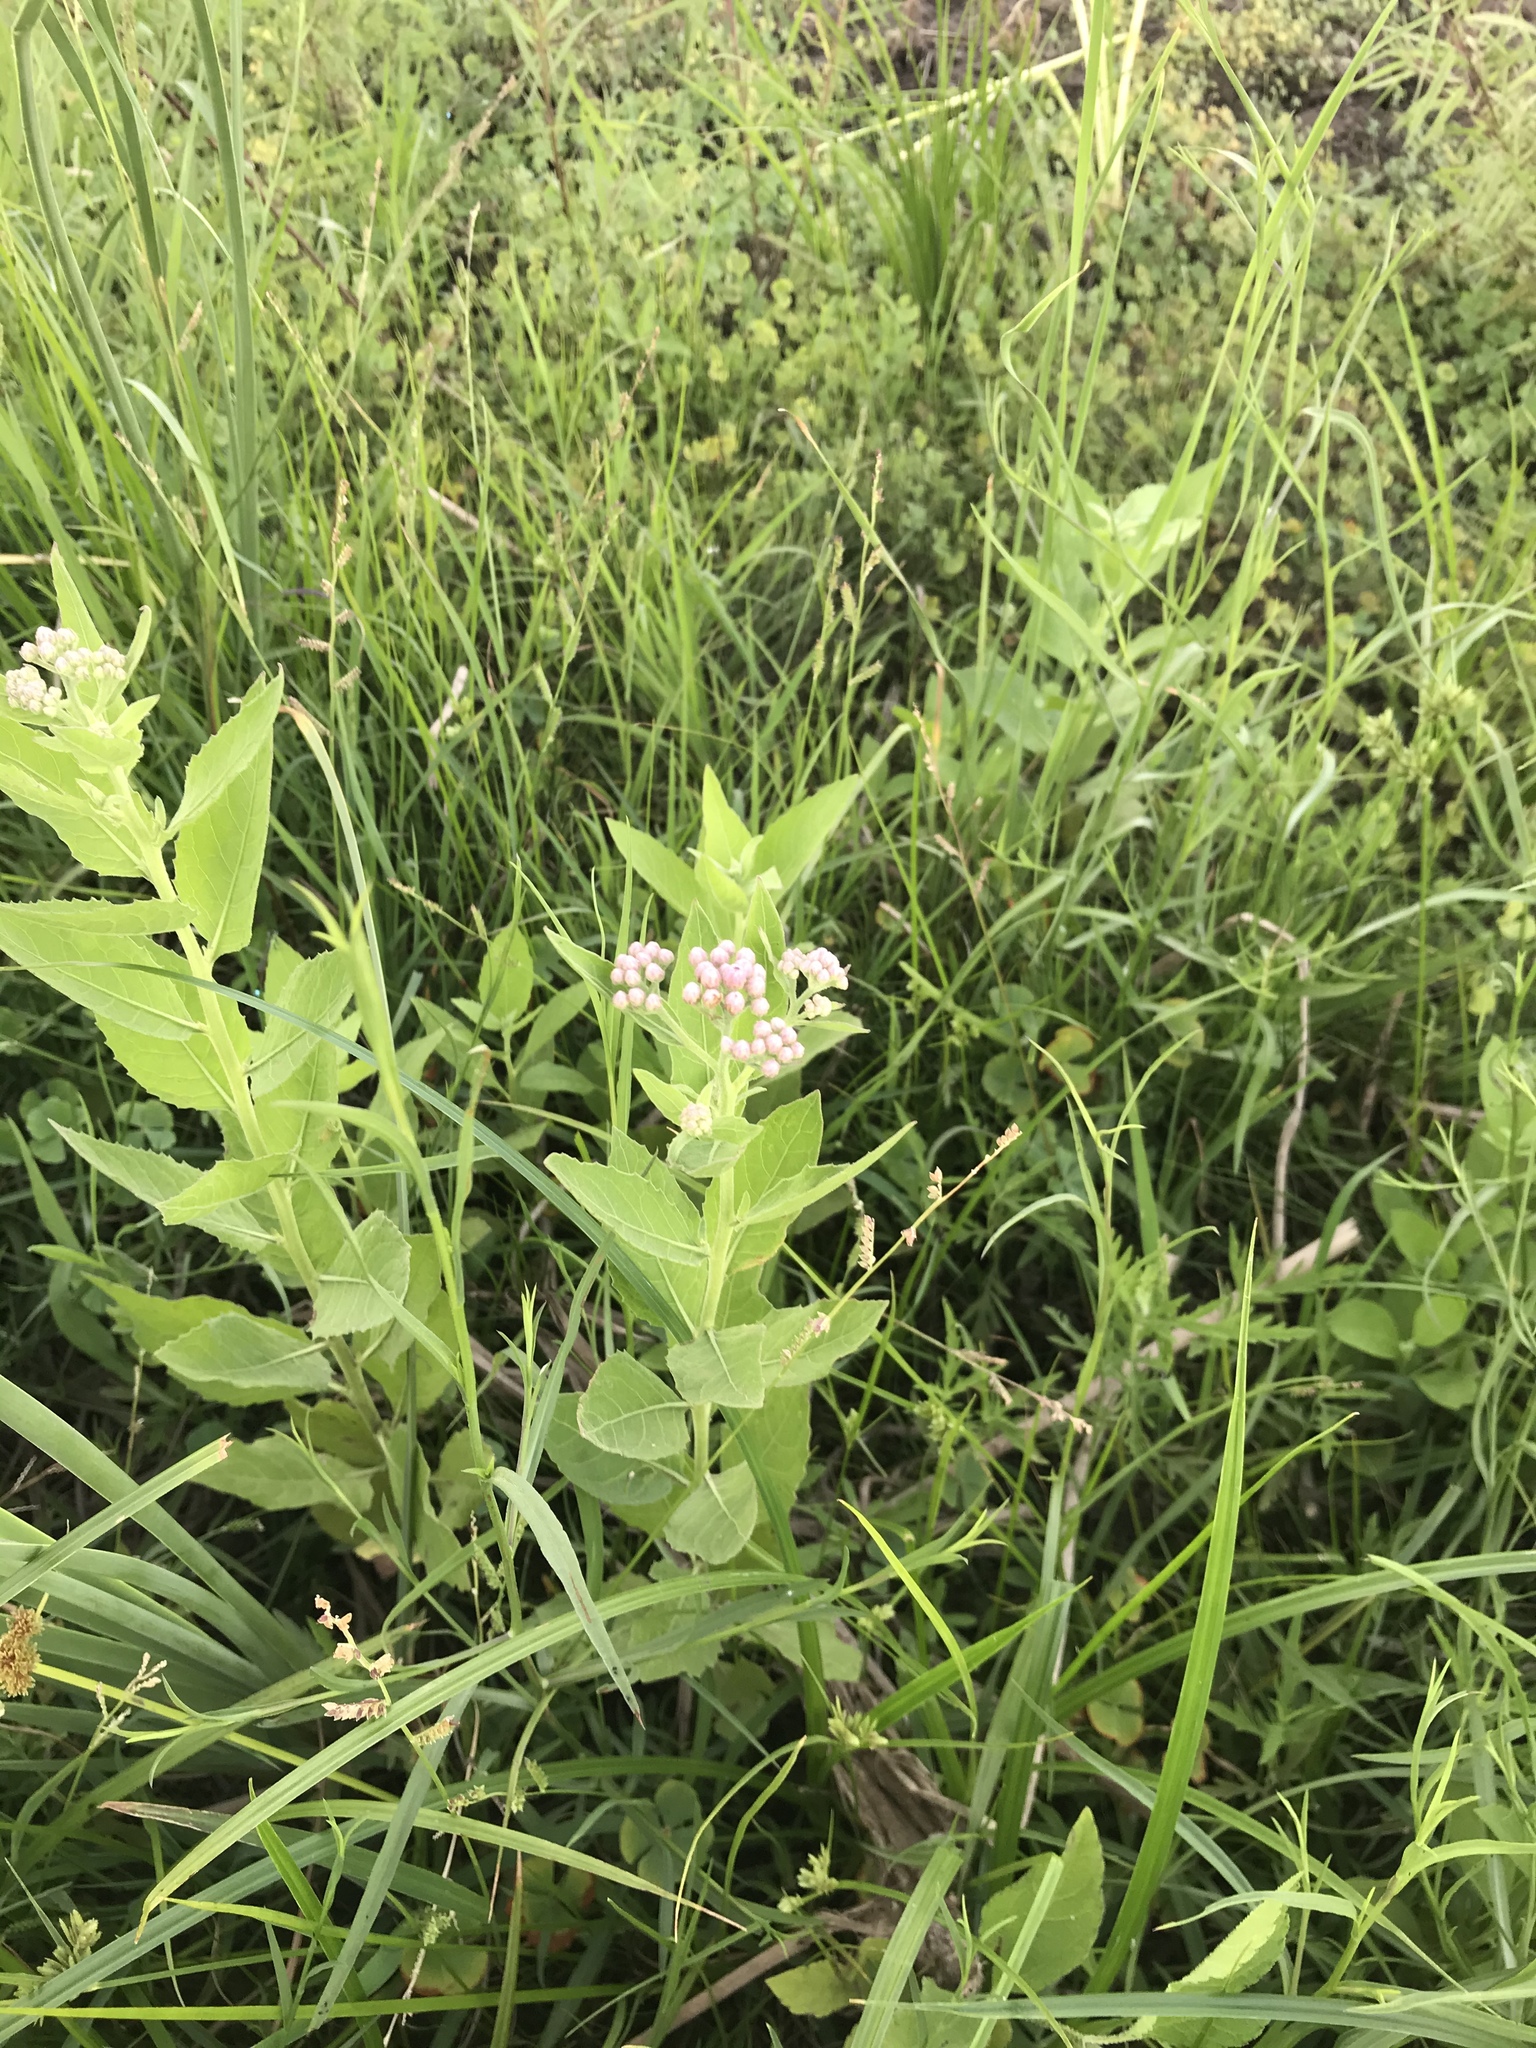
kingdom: Plantae
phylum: Tracheophyta
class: Magnoliopsida
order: Asterales
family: Asteraceae
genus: Pluchea
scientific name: Pluchea odorata
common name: Saltmarsh fleabane
